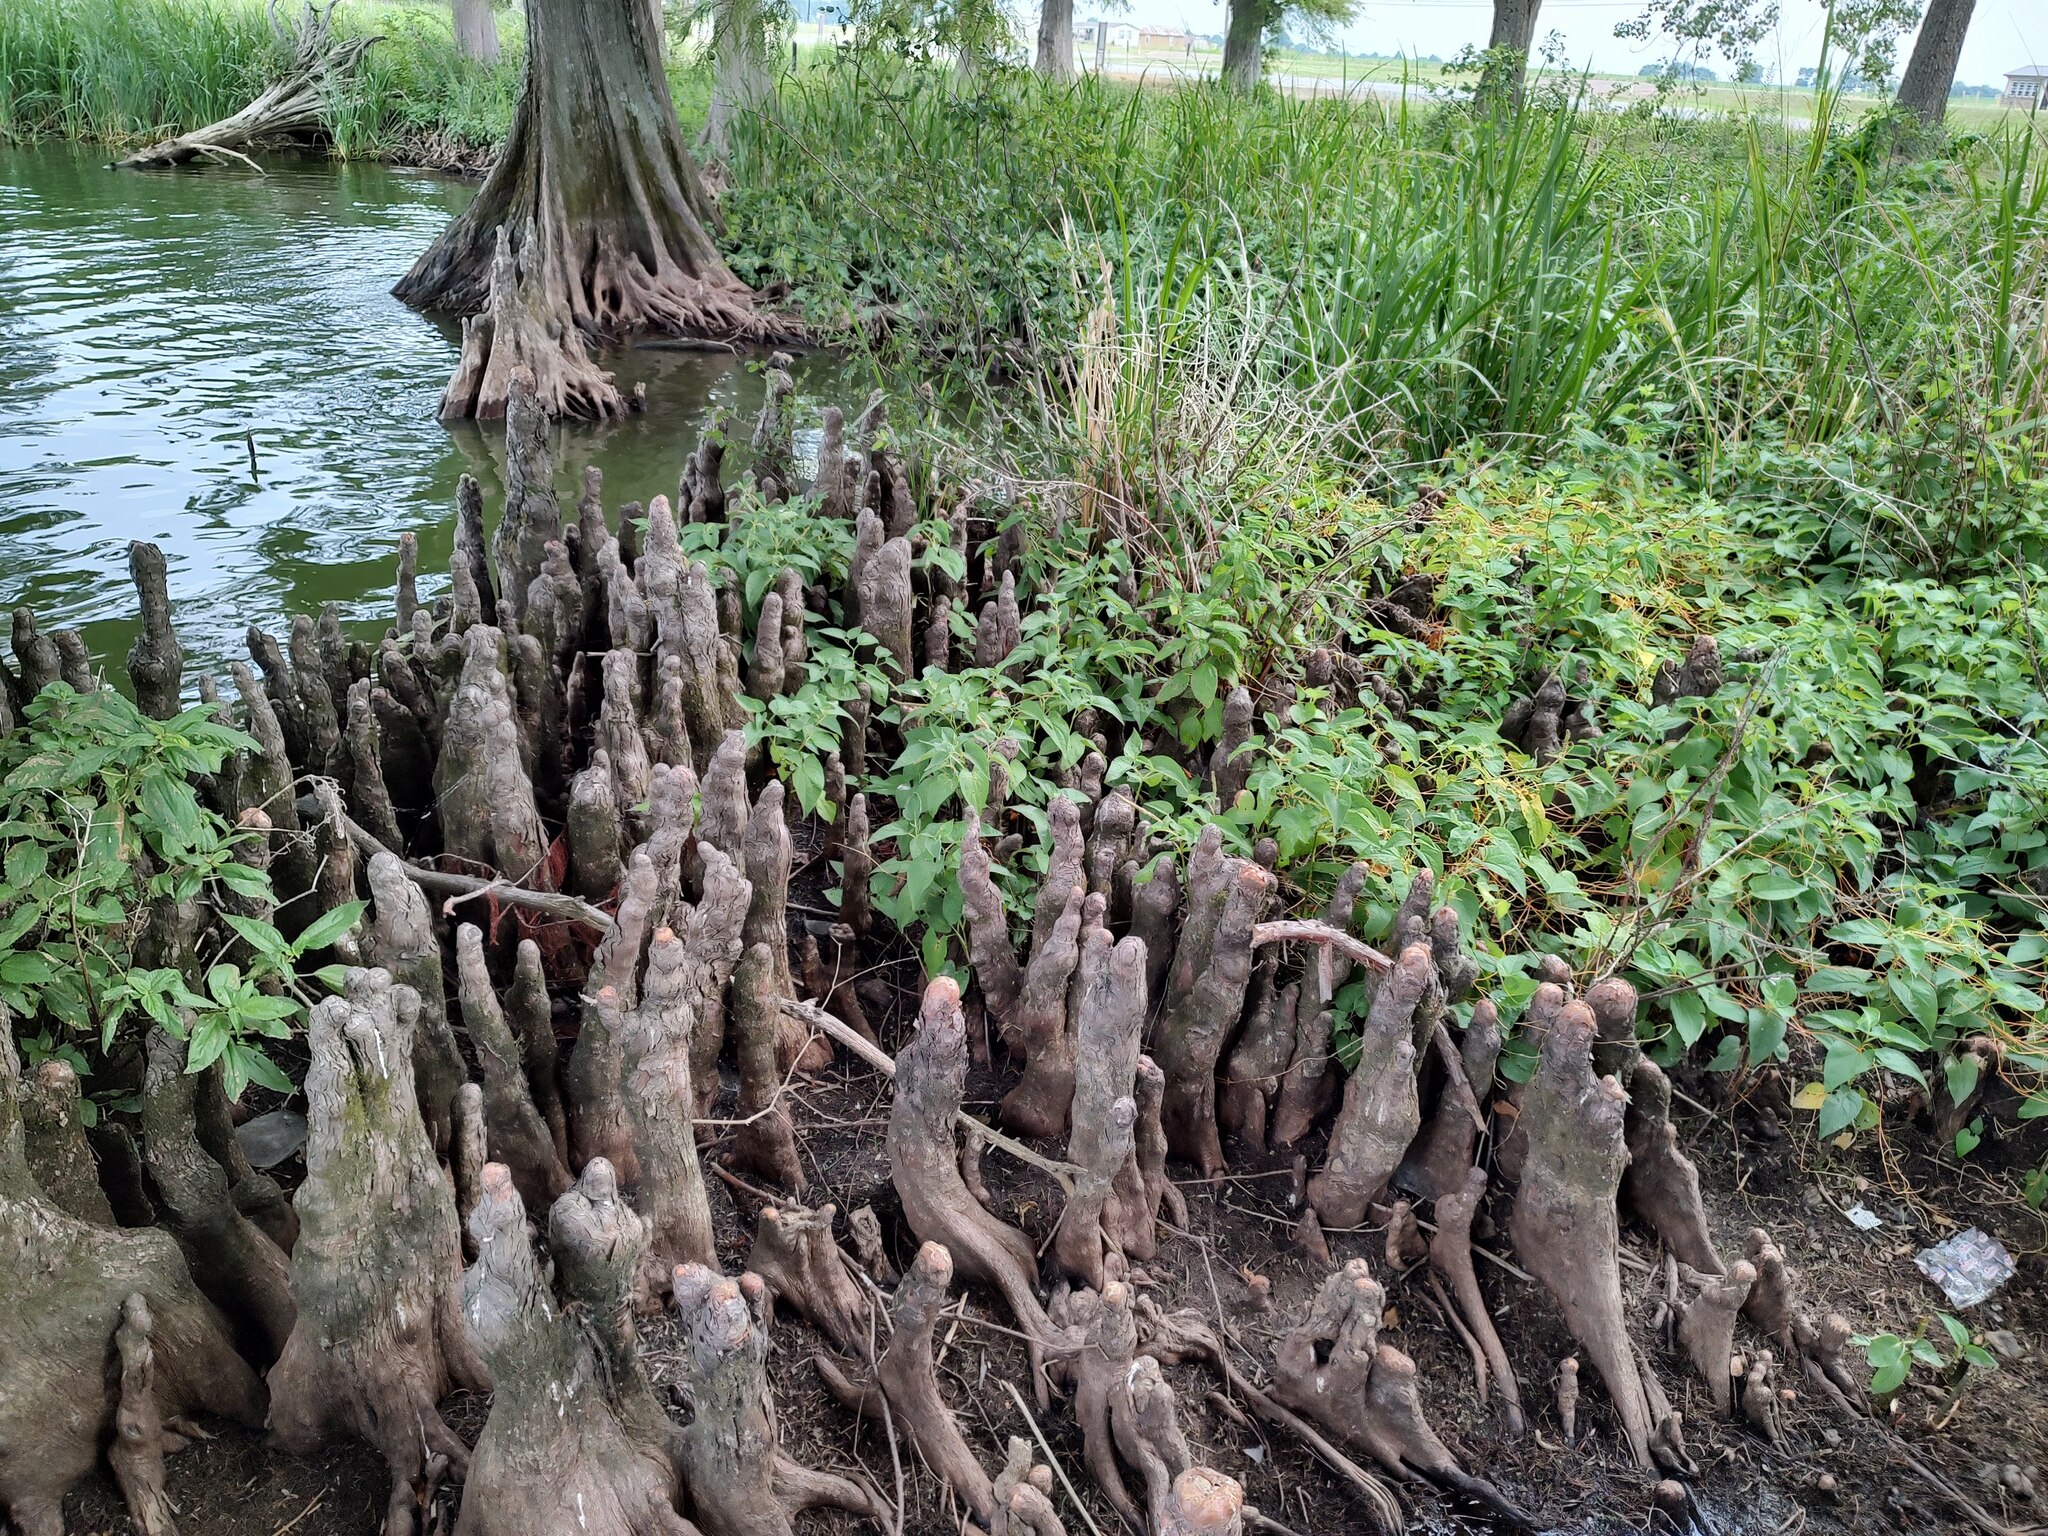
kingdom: Plantae
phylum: Tracheophyta
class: Pinopsida
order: Pinales
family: Cupressaceae
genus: Taxodium
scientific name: Taxodium distichum
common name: Bald cypress
